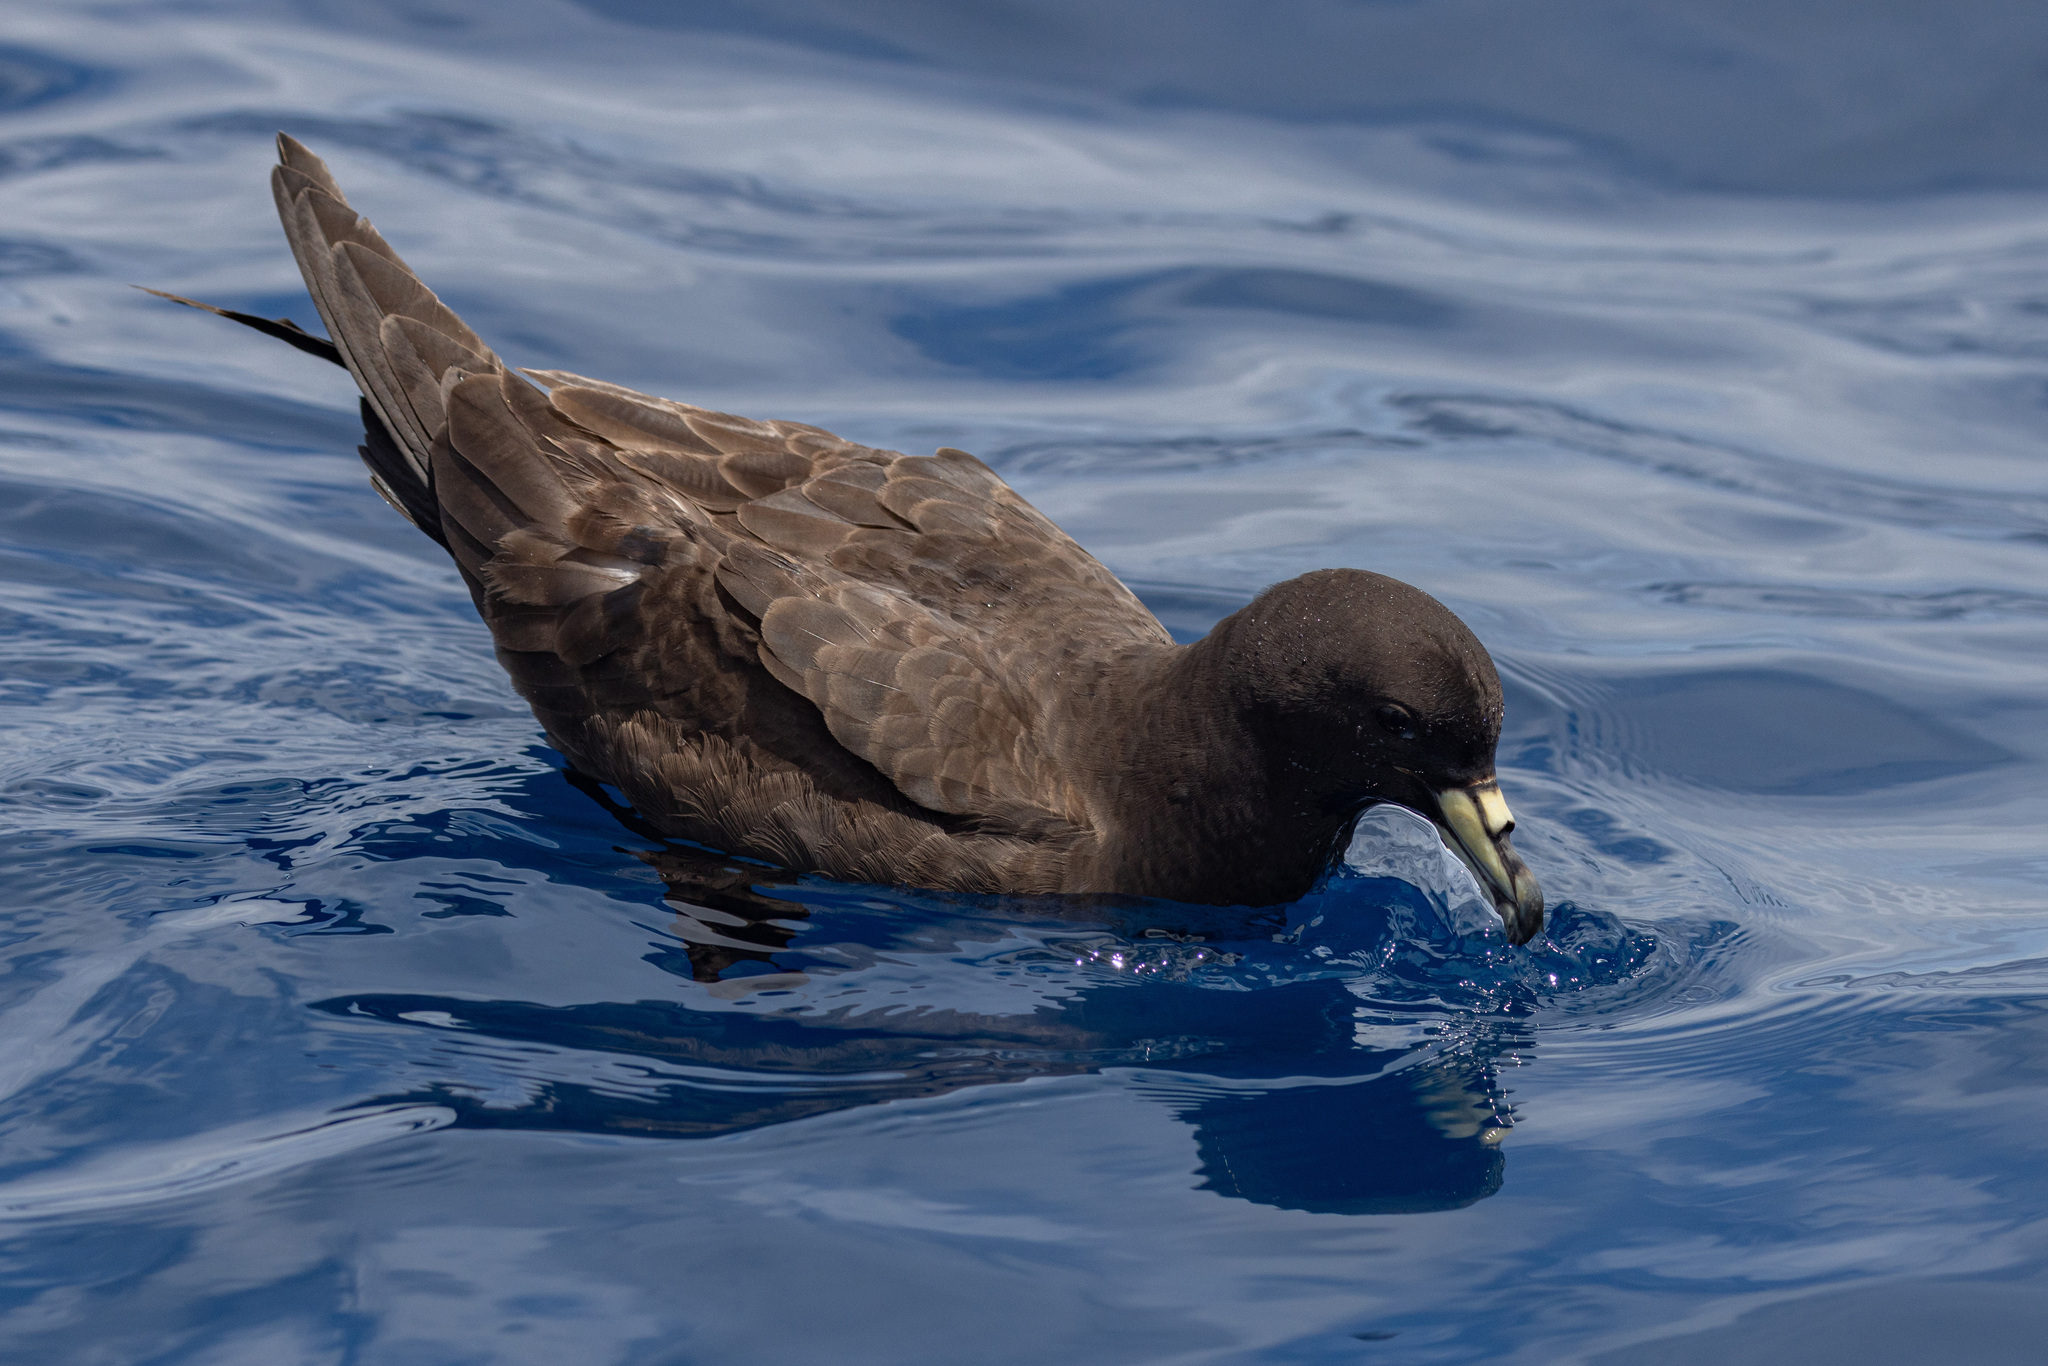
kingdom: Animalia
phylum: Chordata
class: Aves
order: Procellariiformes
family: Procellariidae
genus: Procellaria
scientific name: Procellaria parkinsoni
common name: Black petrel
